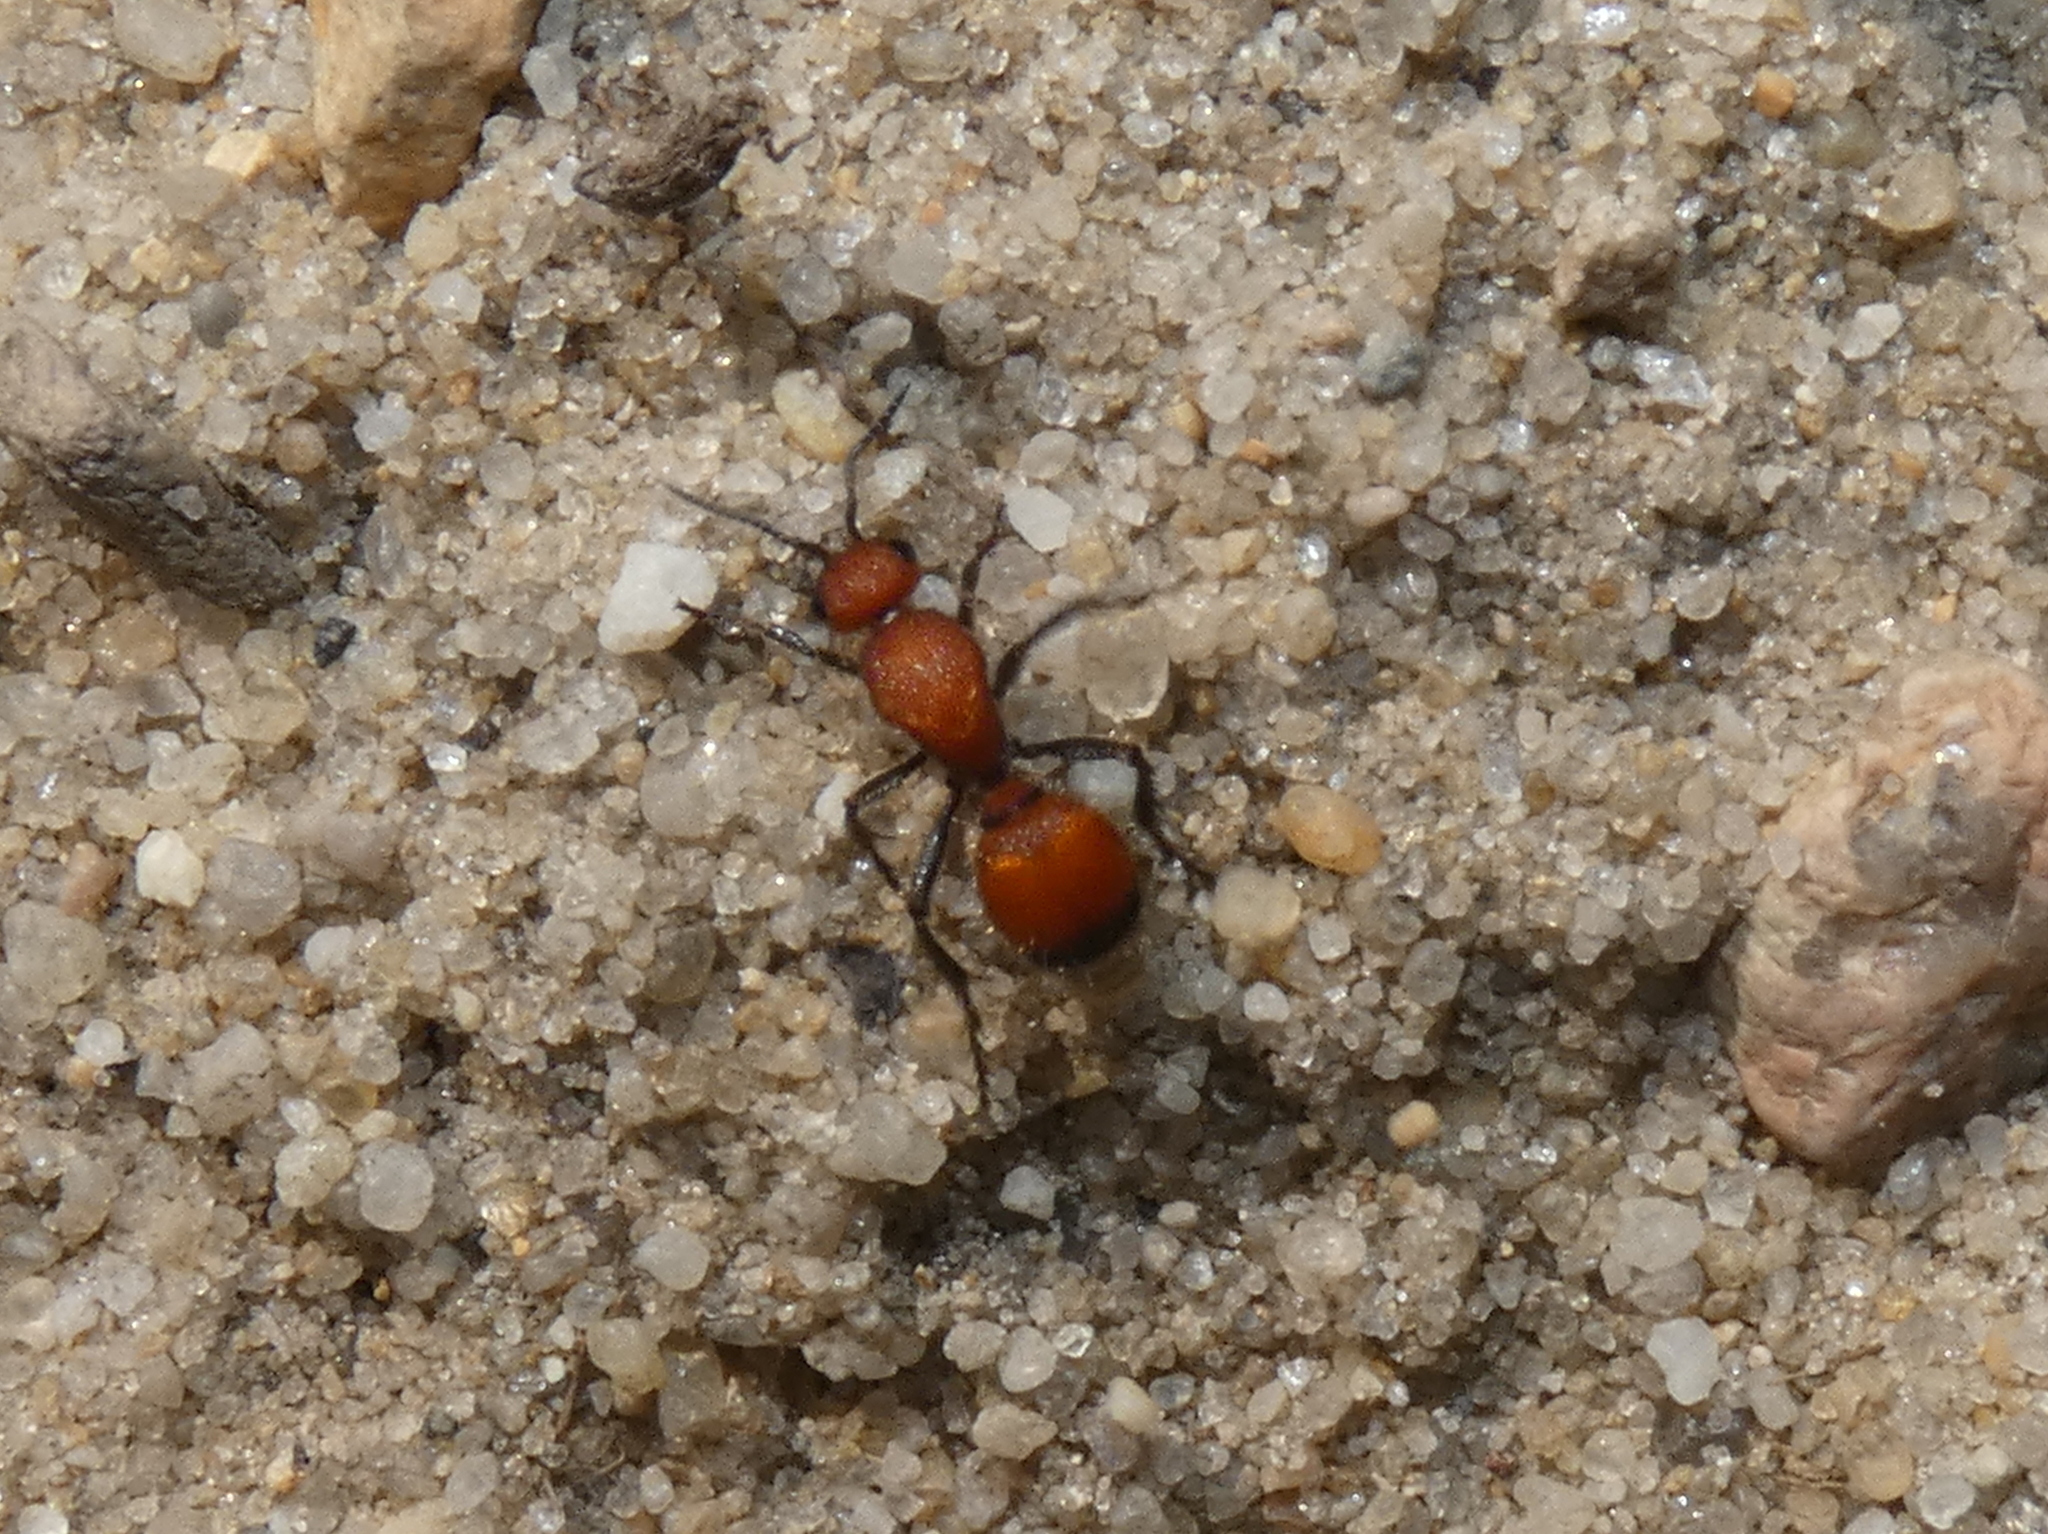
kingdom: Animalia
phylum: Arthropoda
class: Insecta
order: Hymenoptera
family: Mutillidae
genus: Dasymutilla
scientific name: Dasymutilla
